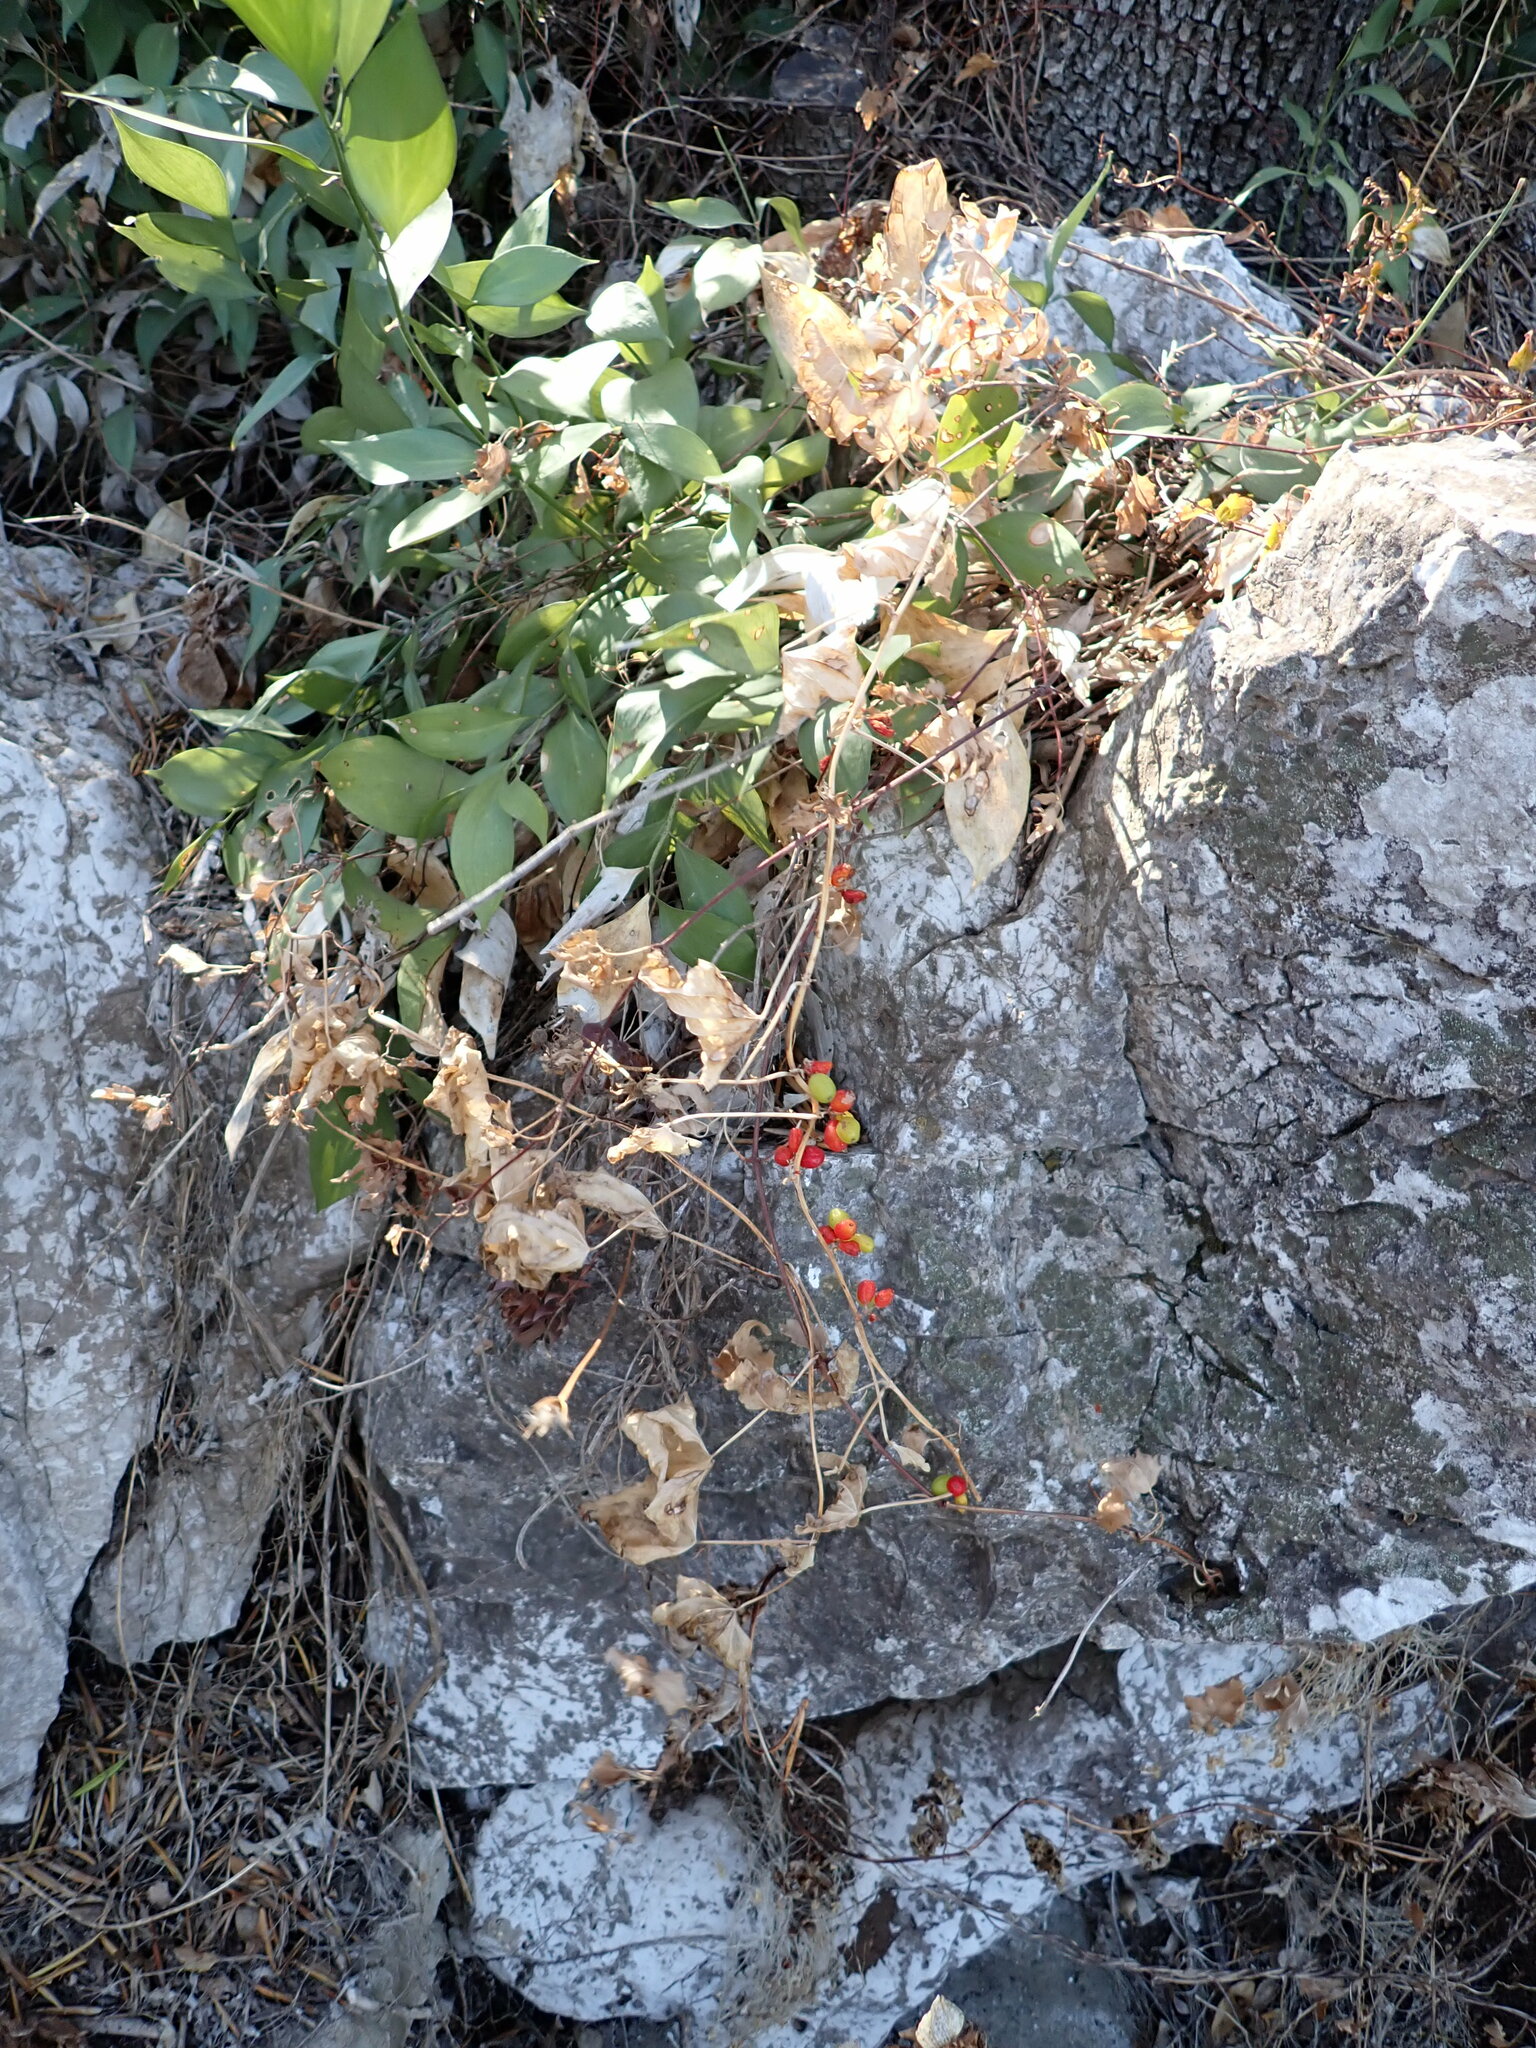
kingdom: Plantae
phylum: Tracheophyta
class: Liliopsida
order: Dioscoreales
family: Dioscoreaceae
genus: Dioscorea
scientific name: Dioscorea communis
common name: Black-bindweed
